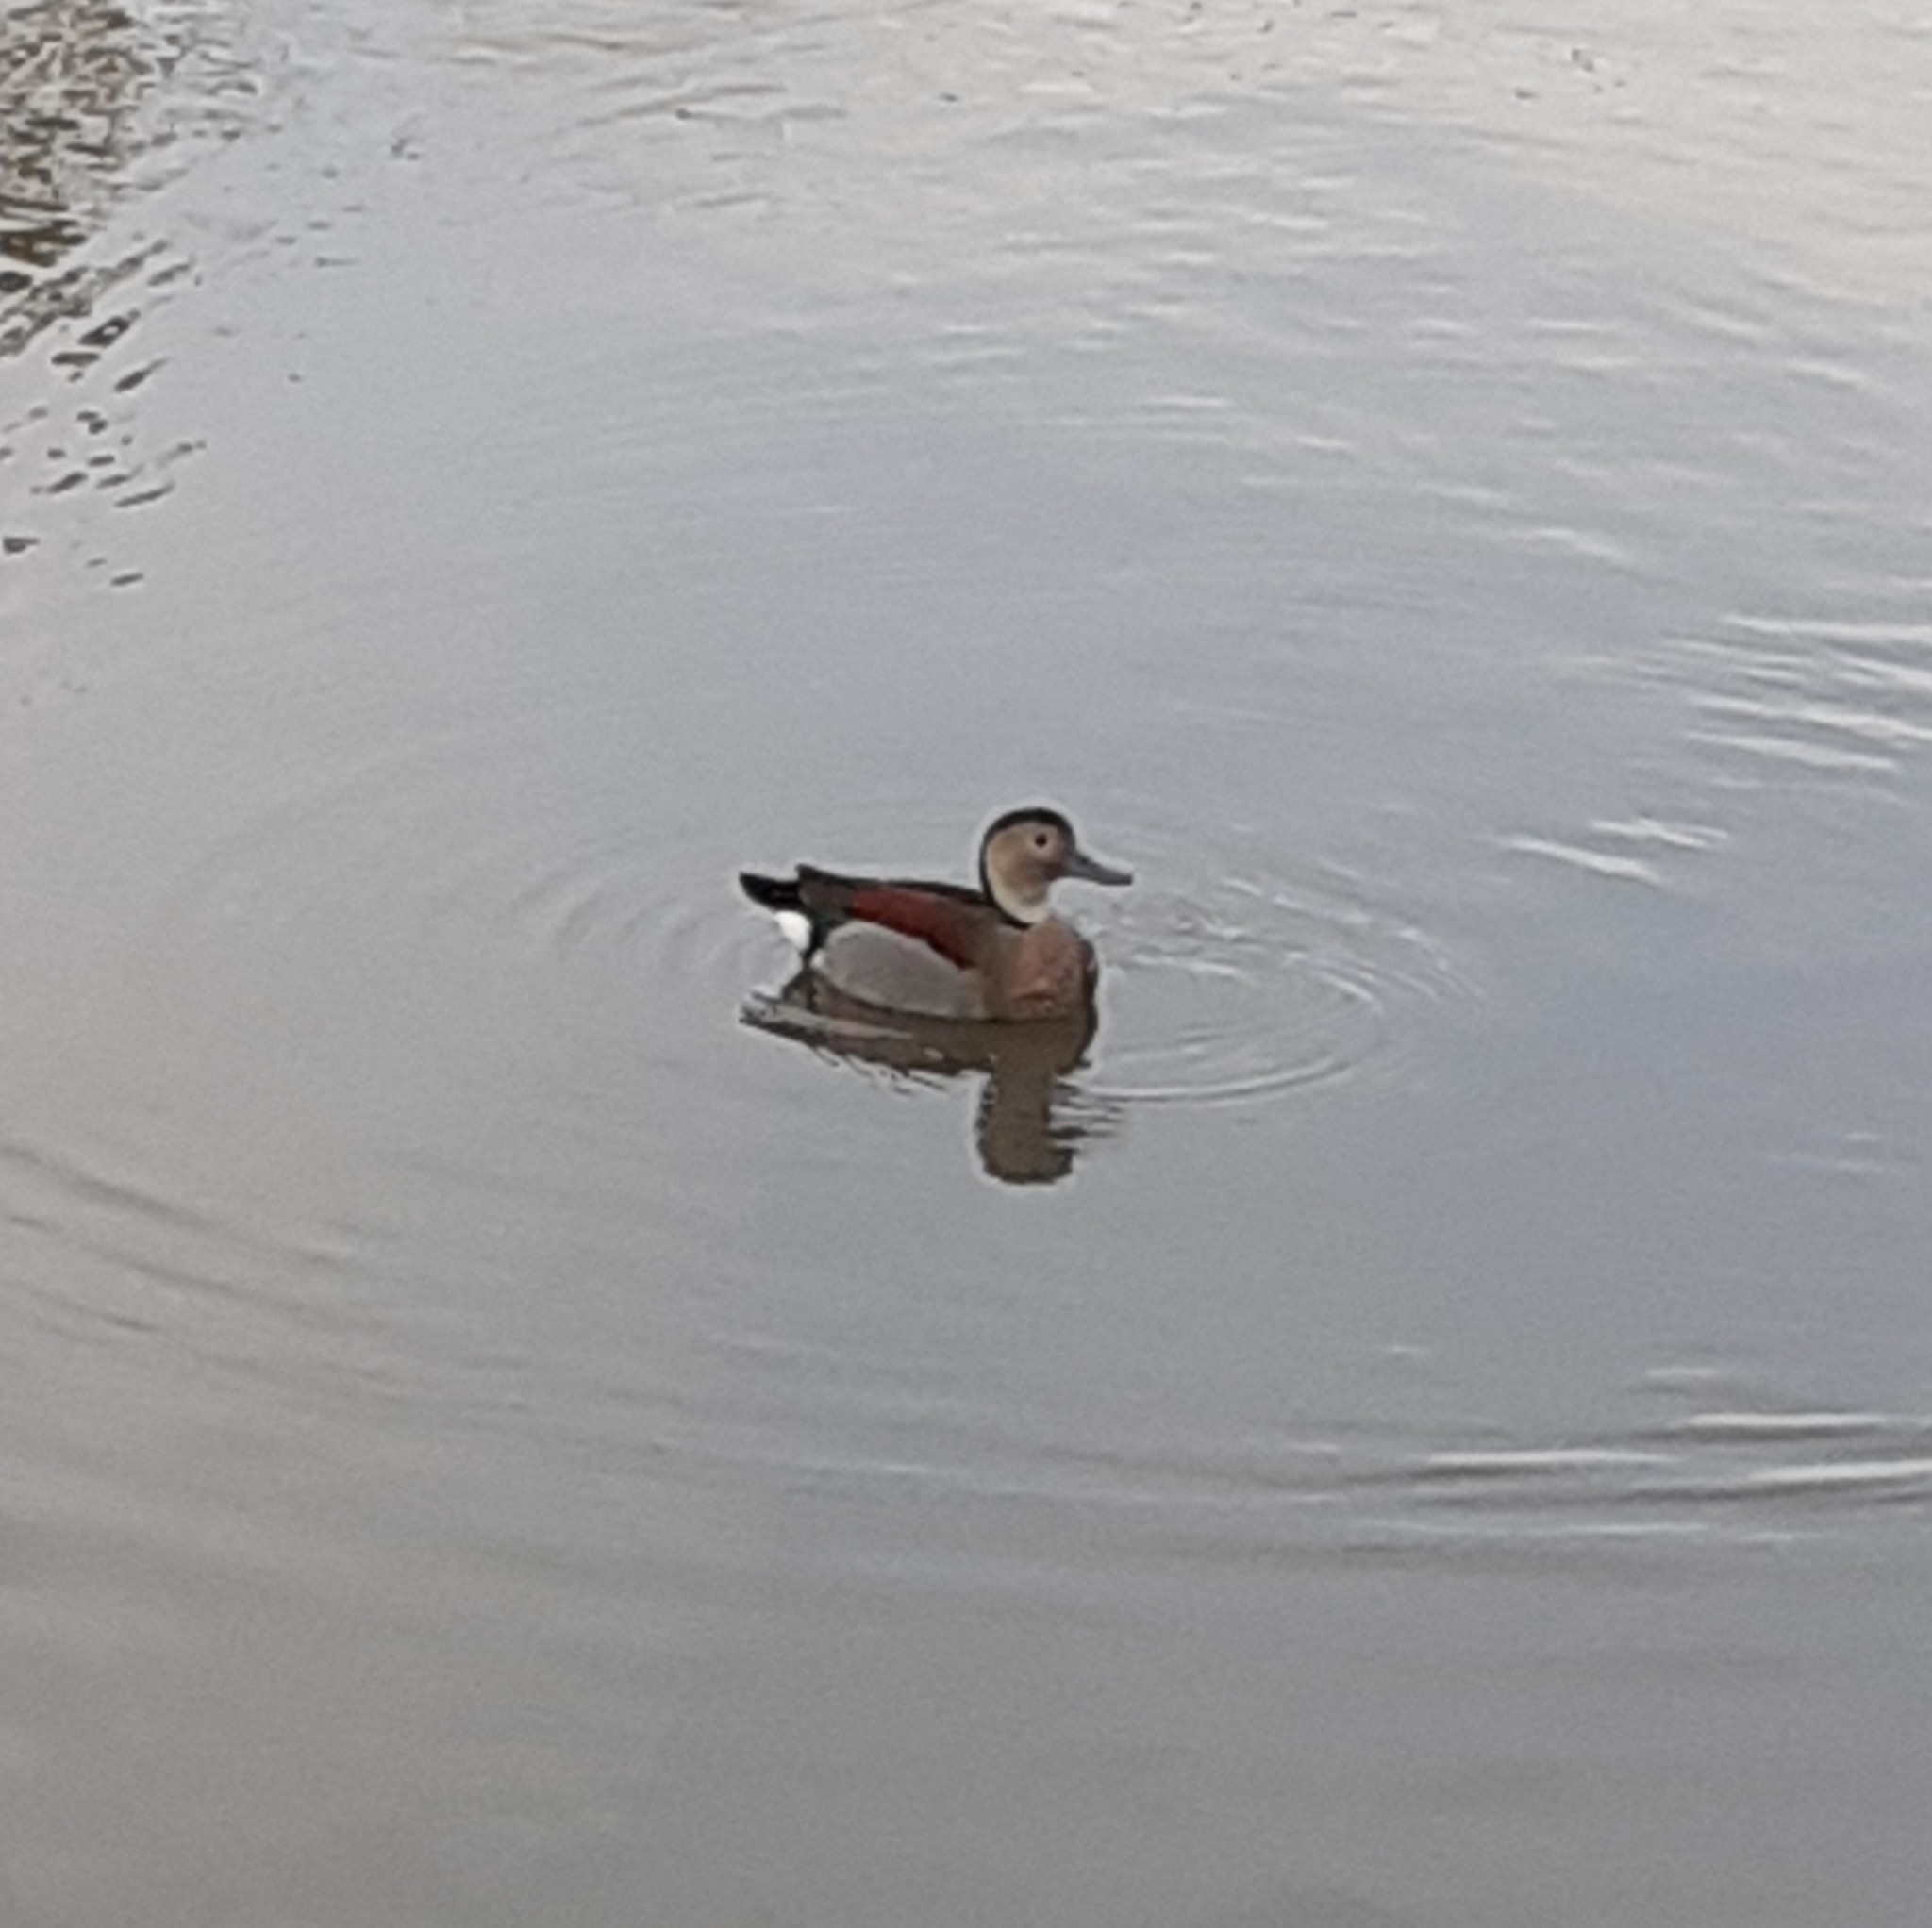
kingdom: Animalia
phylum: Chordata
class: Aves
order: Anseriformes
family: Anatidae
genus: Callonetta
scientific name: Callonetta leucophrys
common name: Ringed teal
